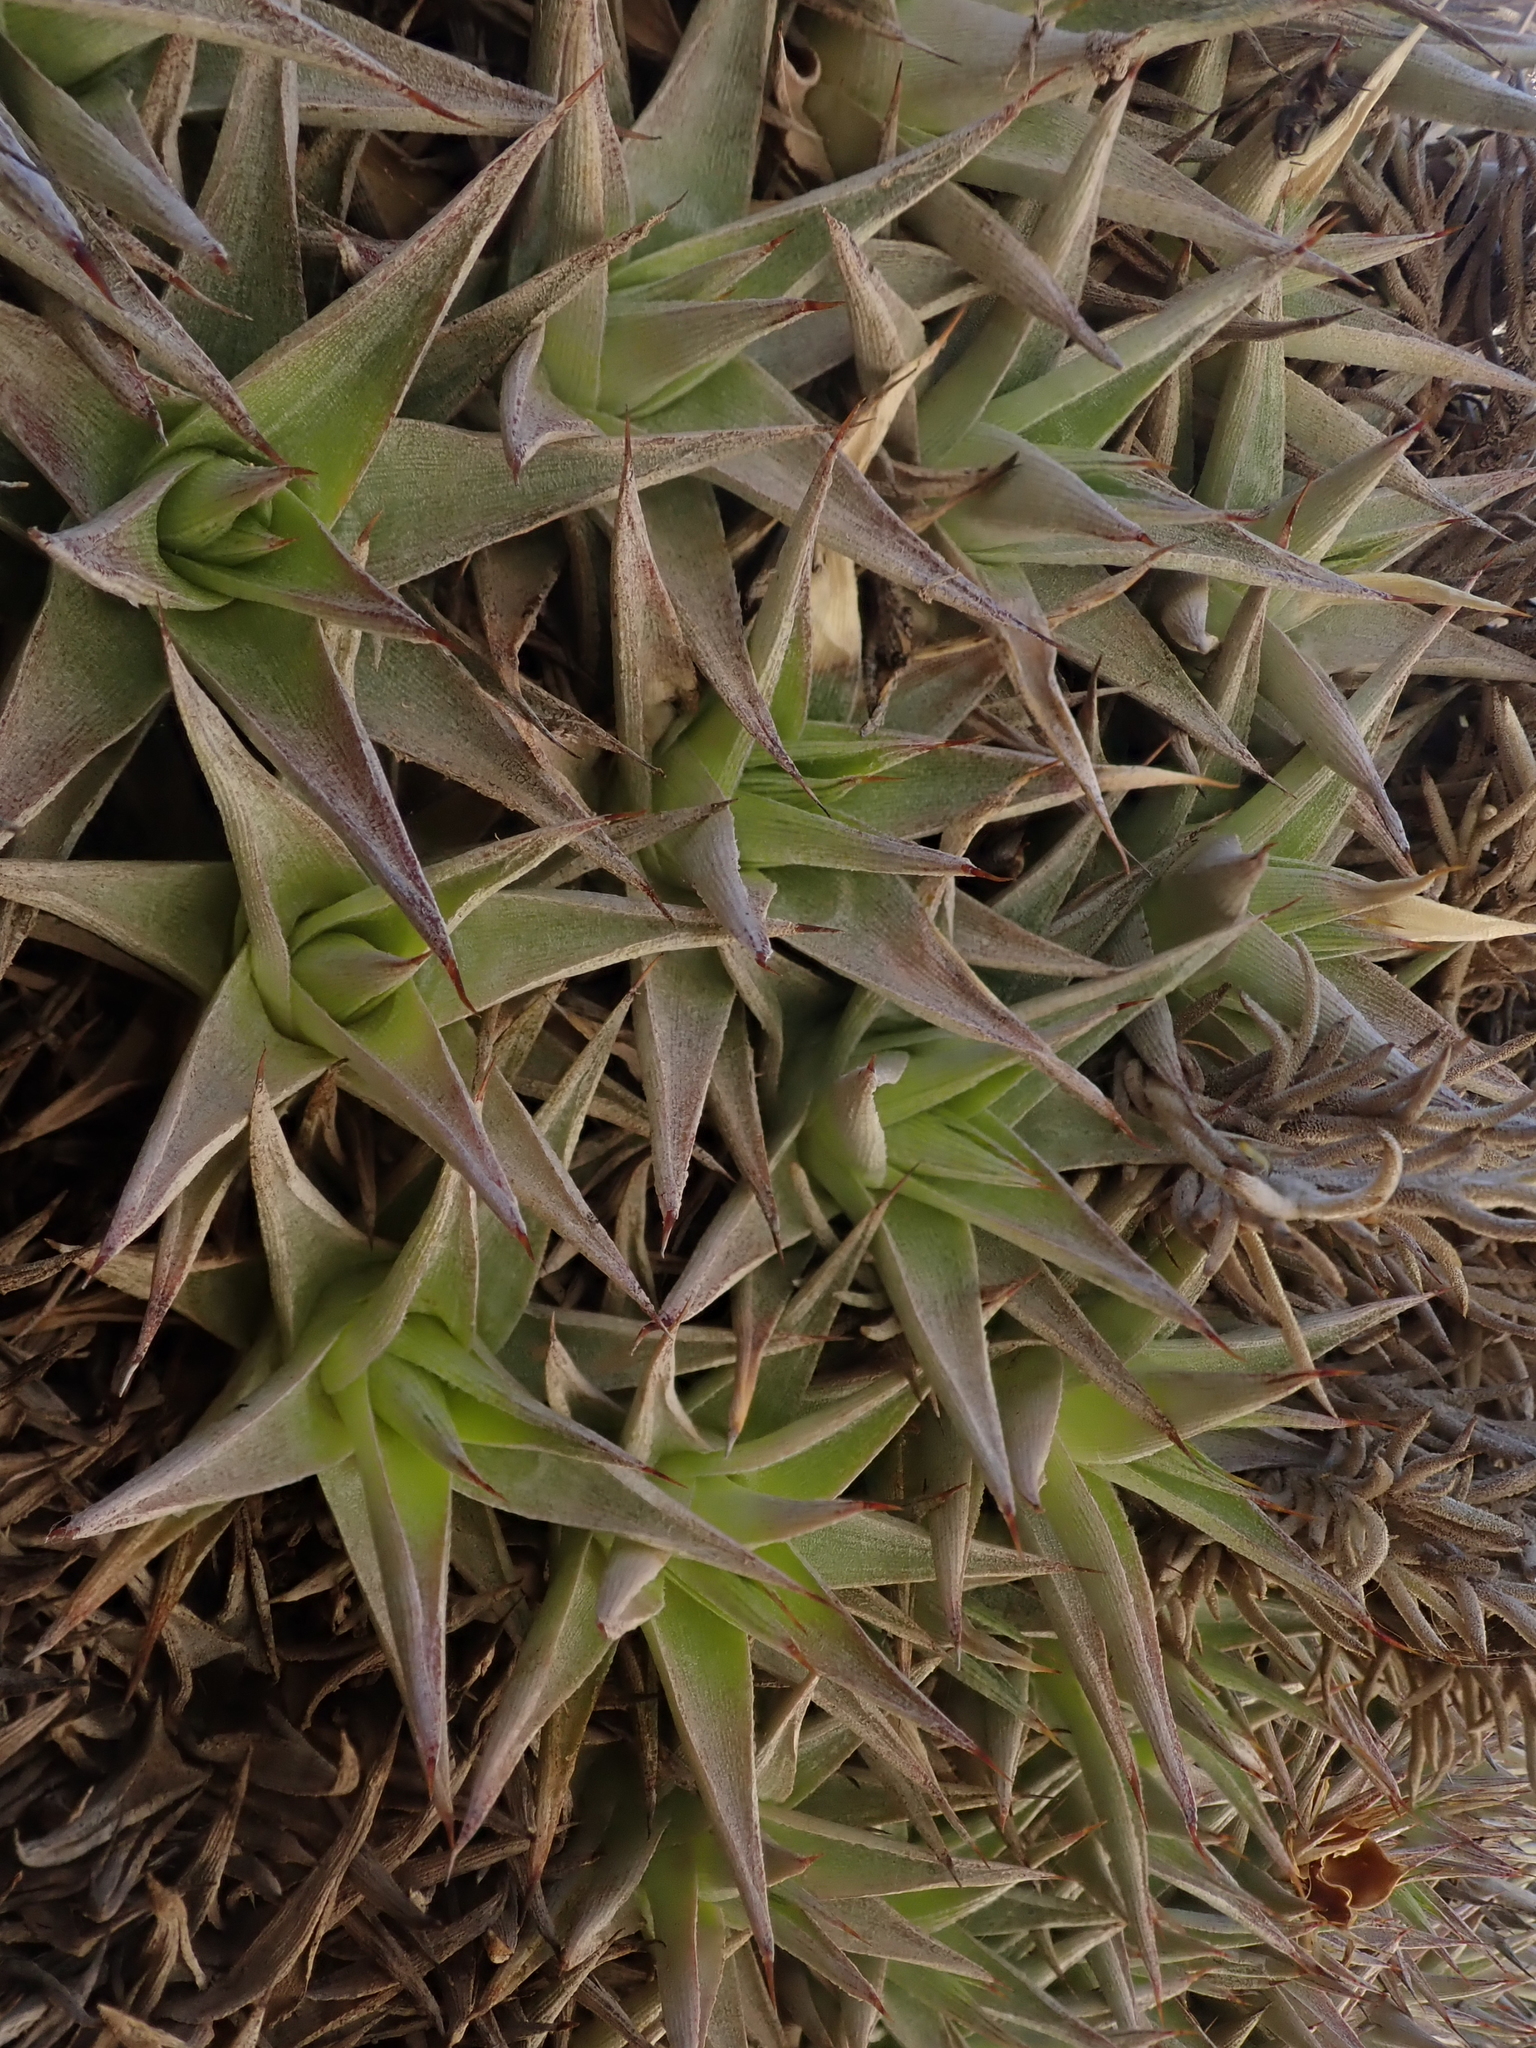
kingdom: Plantae
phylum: Tracheophyta
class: Liliopsida
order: Poales
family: Bromeliaceae
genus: Deuterocohnia
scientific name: Deuterocohnia abstrusa
